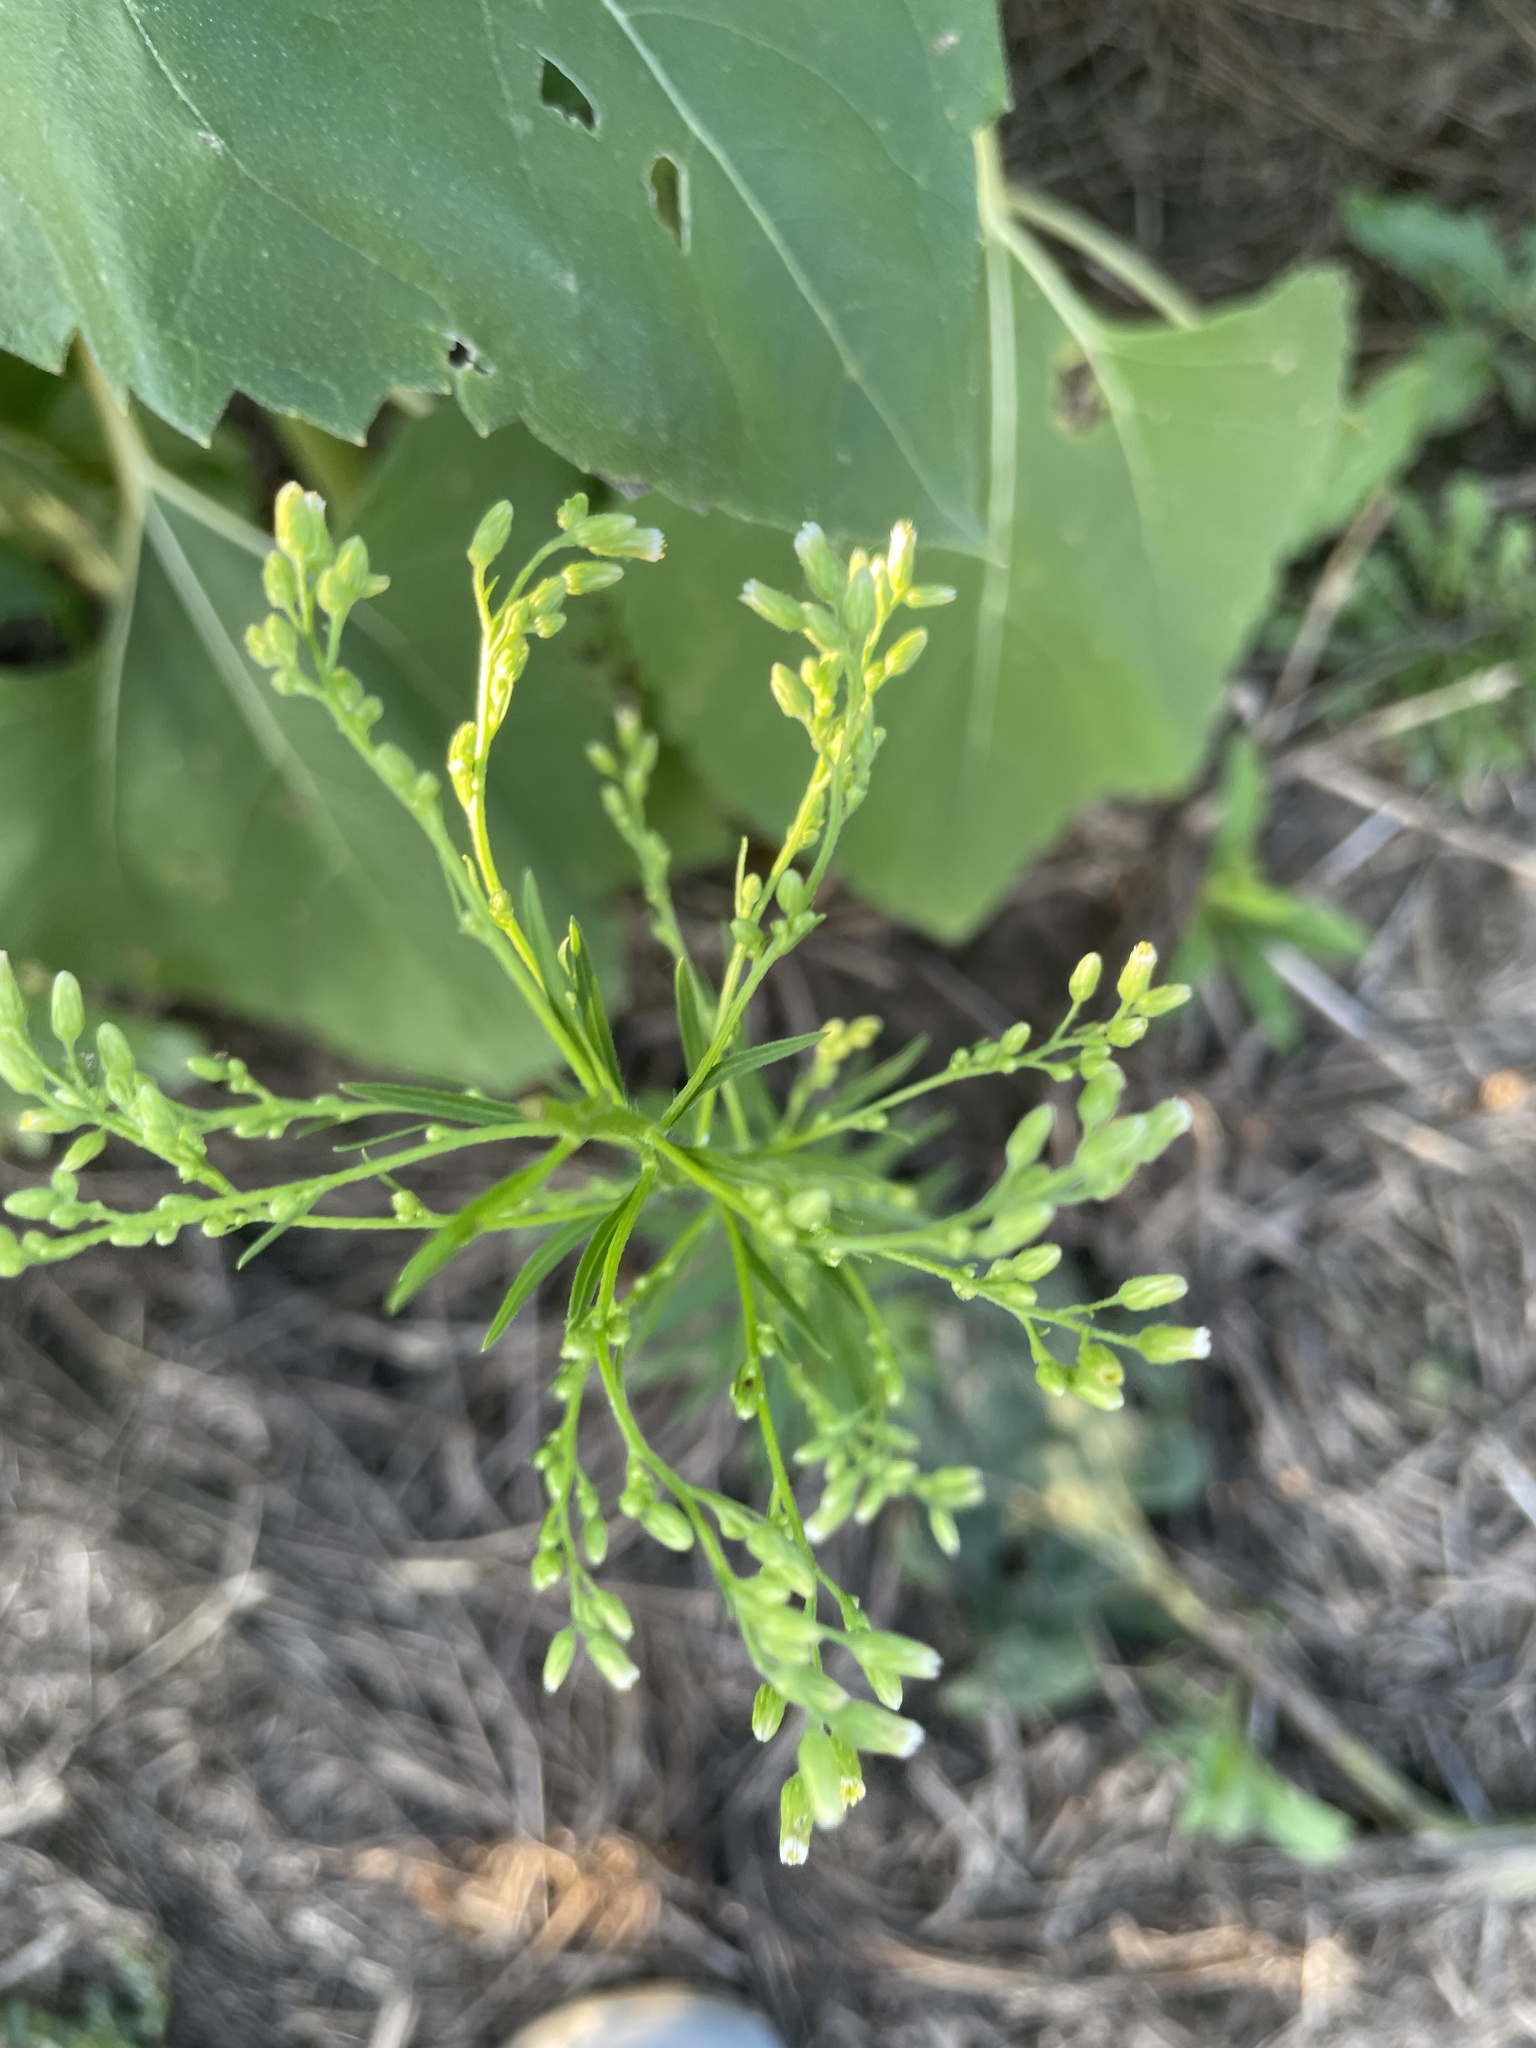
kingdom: Plantae
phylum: Tracheophyta
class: Magnoliopsida
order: Asterales
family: Asteraceae
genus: Erigeron
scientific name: Erigeron canadensis
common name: Canadian fleabane
